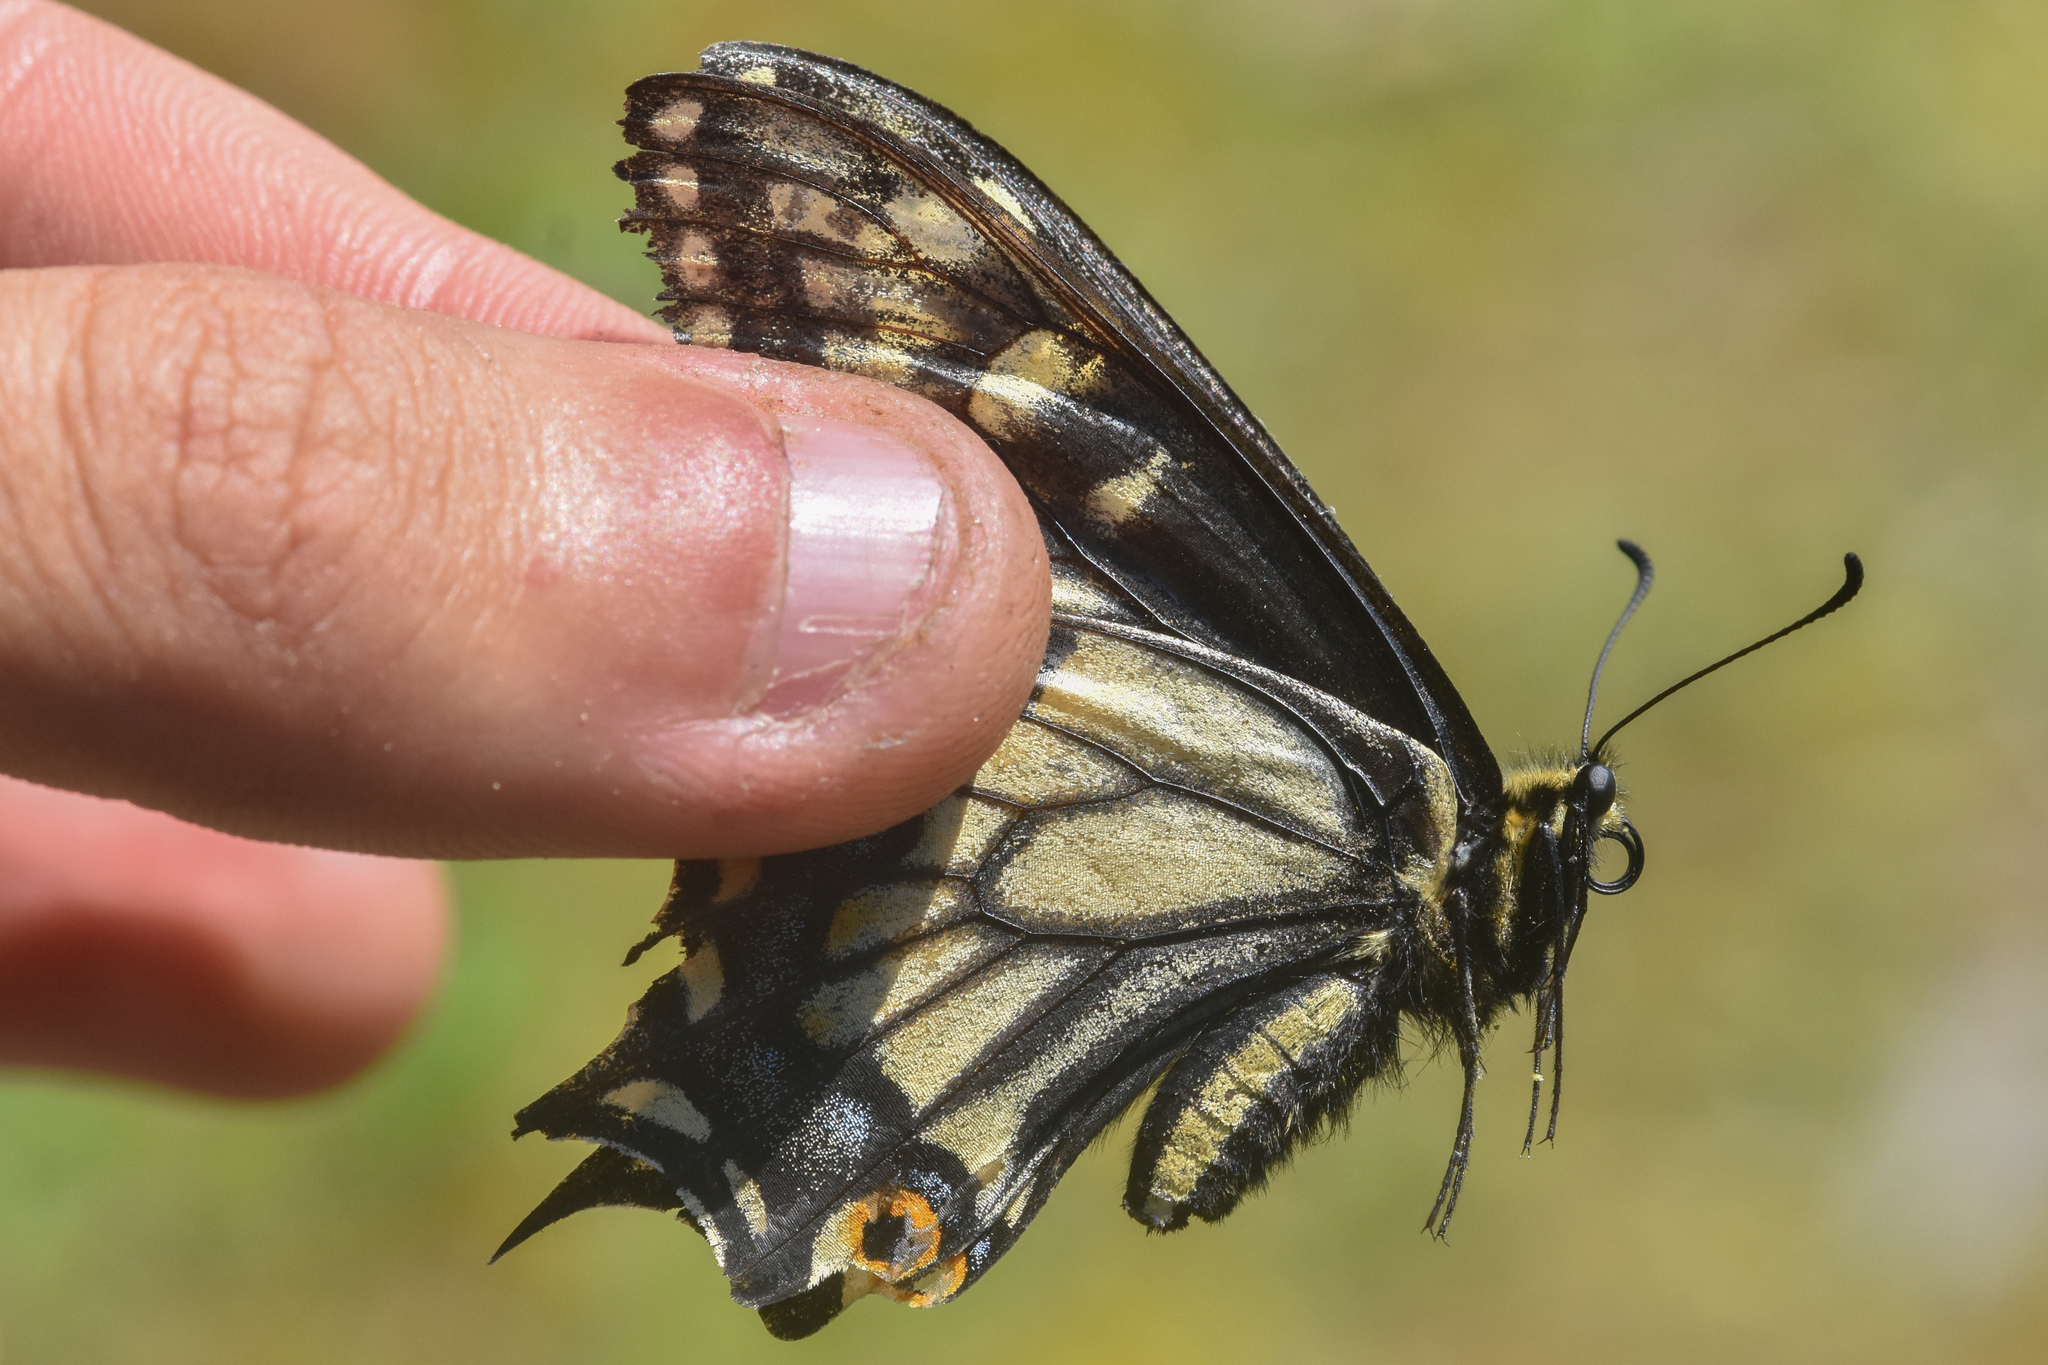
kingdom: Animalia
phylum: Arthropoda
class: Insecta
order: Lepidoptera
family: Papilionidae
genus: Papilio
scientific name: Papilio zelicaon
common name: Anise swallowtail
